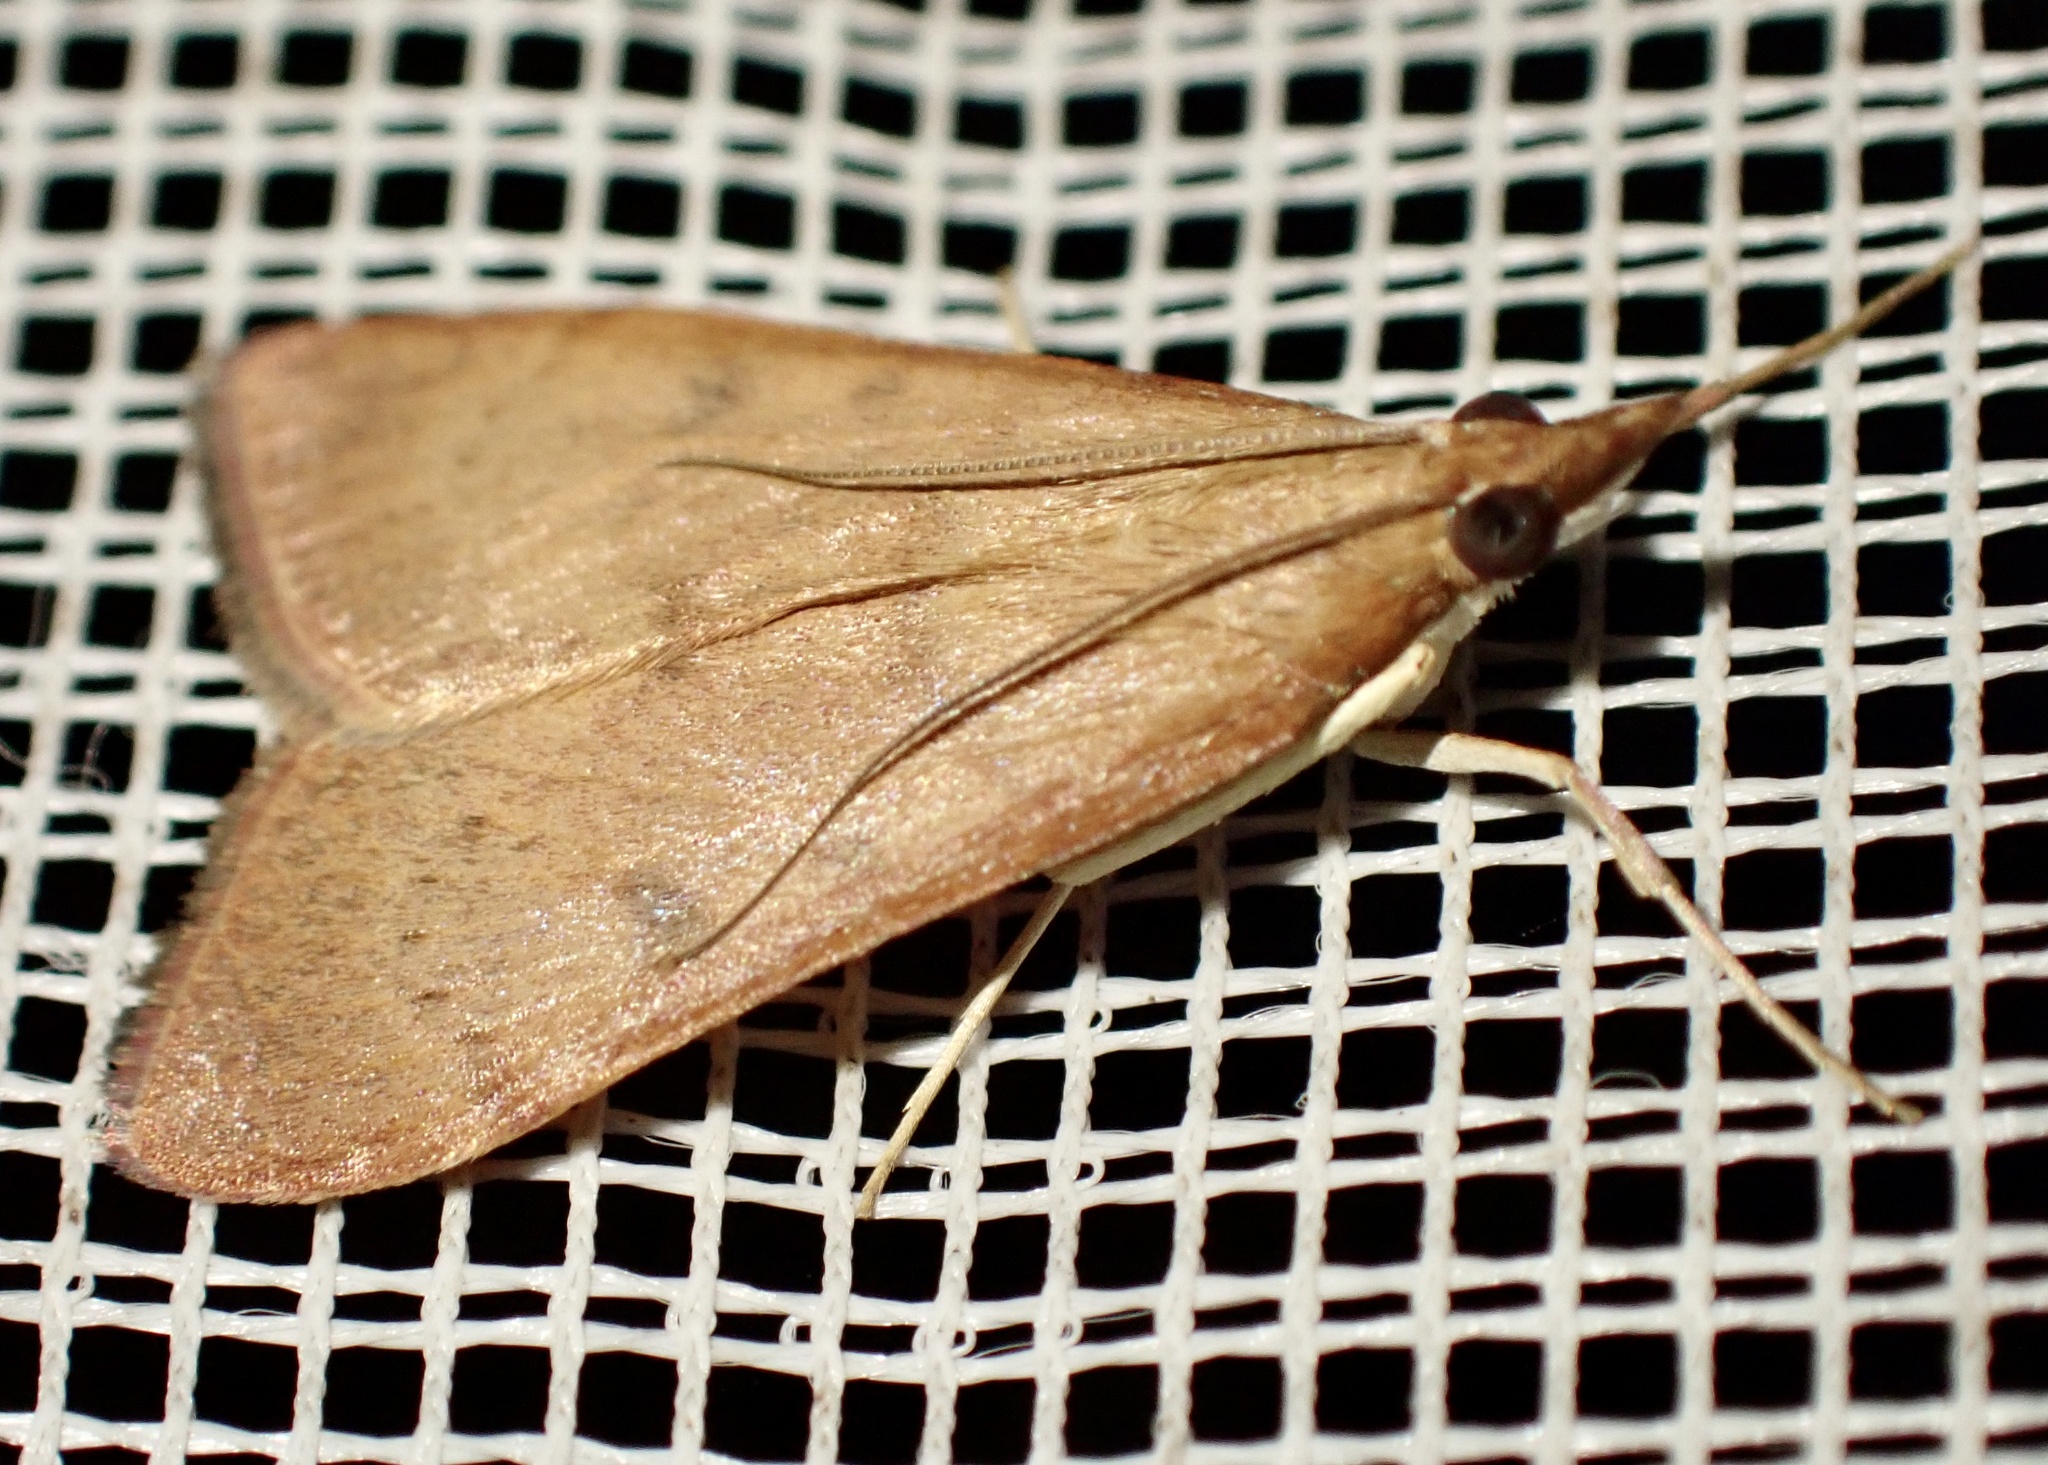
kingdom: Animalia
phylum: Arthropoda
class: Insecta
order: Lepidoptera
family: Crambidae
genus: Uresiphita
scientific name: Uresiphita gilvata
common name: Yellow-underwing pearl
